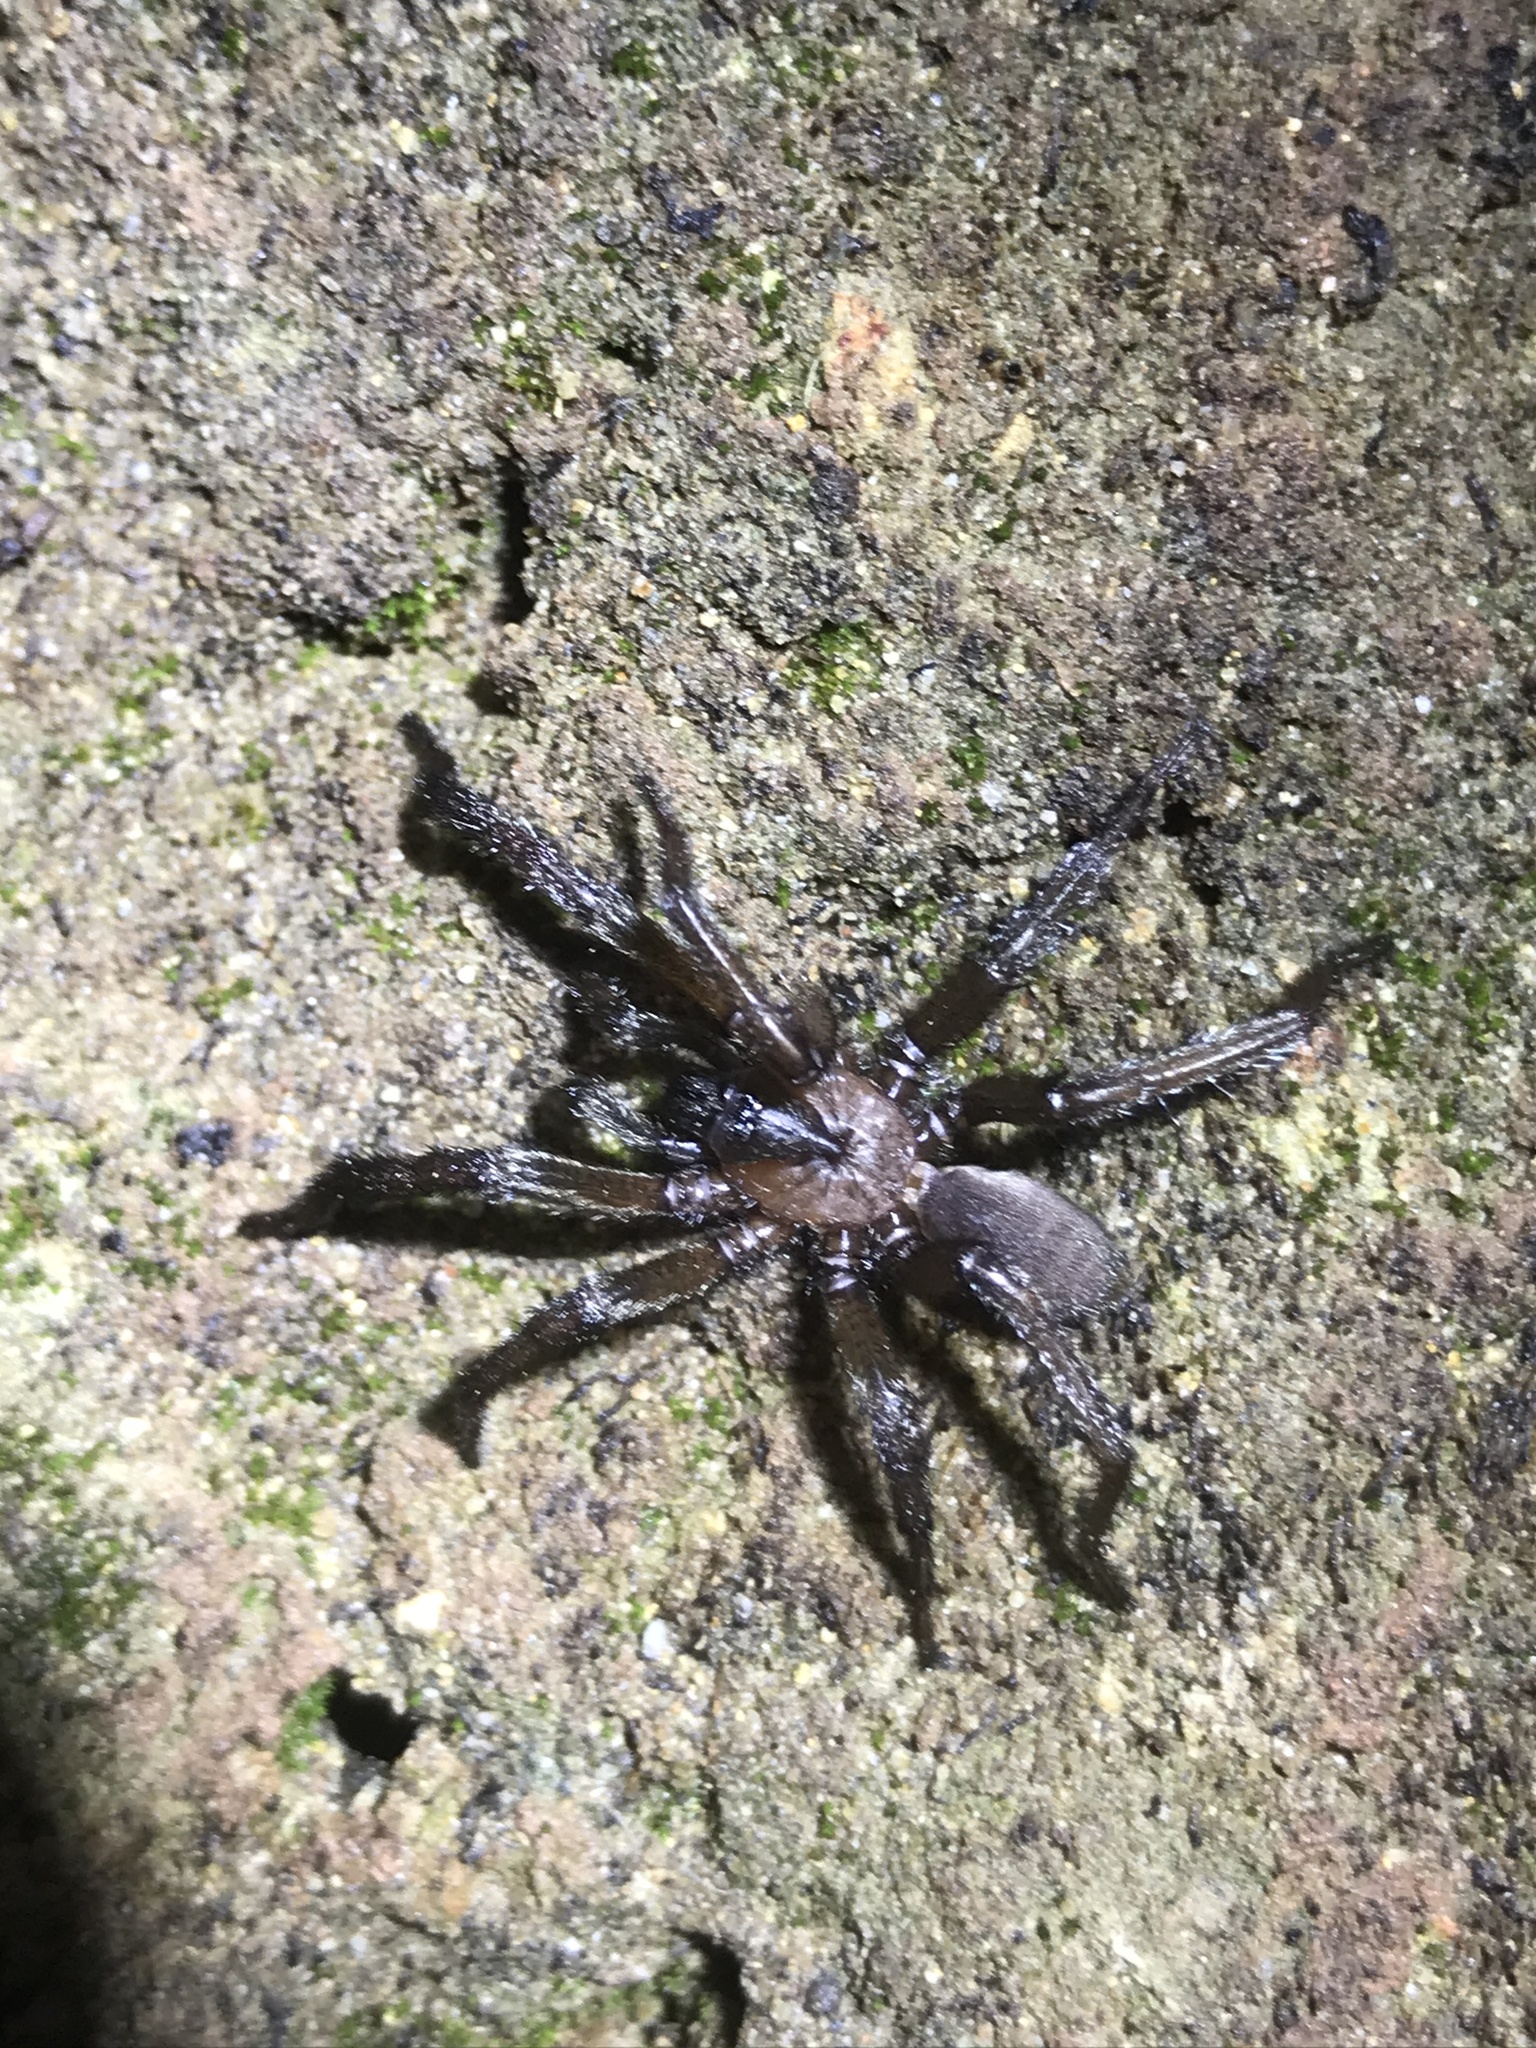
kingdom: Animalia
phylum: Arthropoda
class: Arachnida
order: Araneae
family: Euctenizidae
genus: Promyrmekiaphila
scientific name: Promyrmekiaphila clathrata
